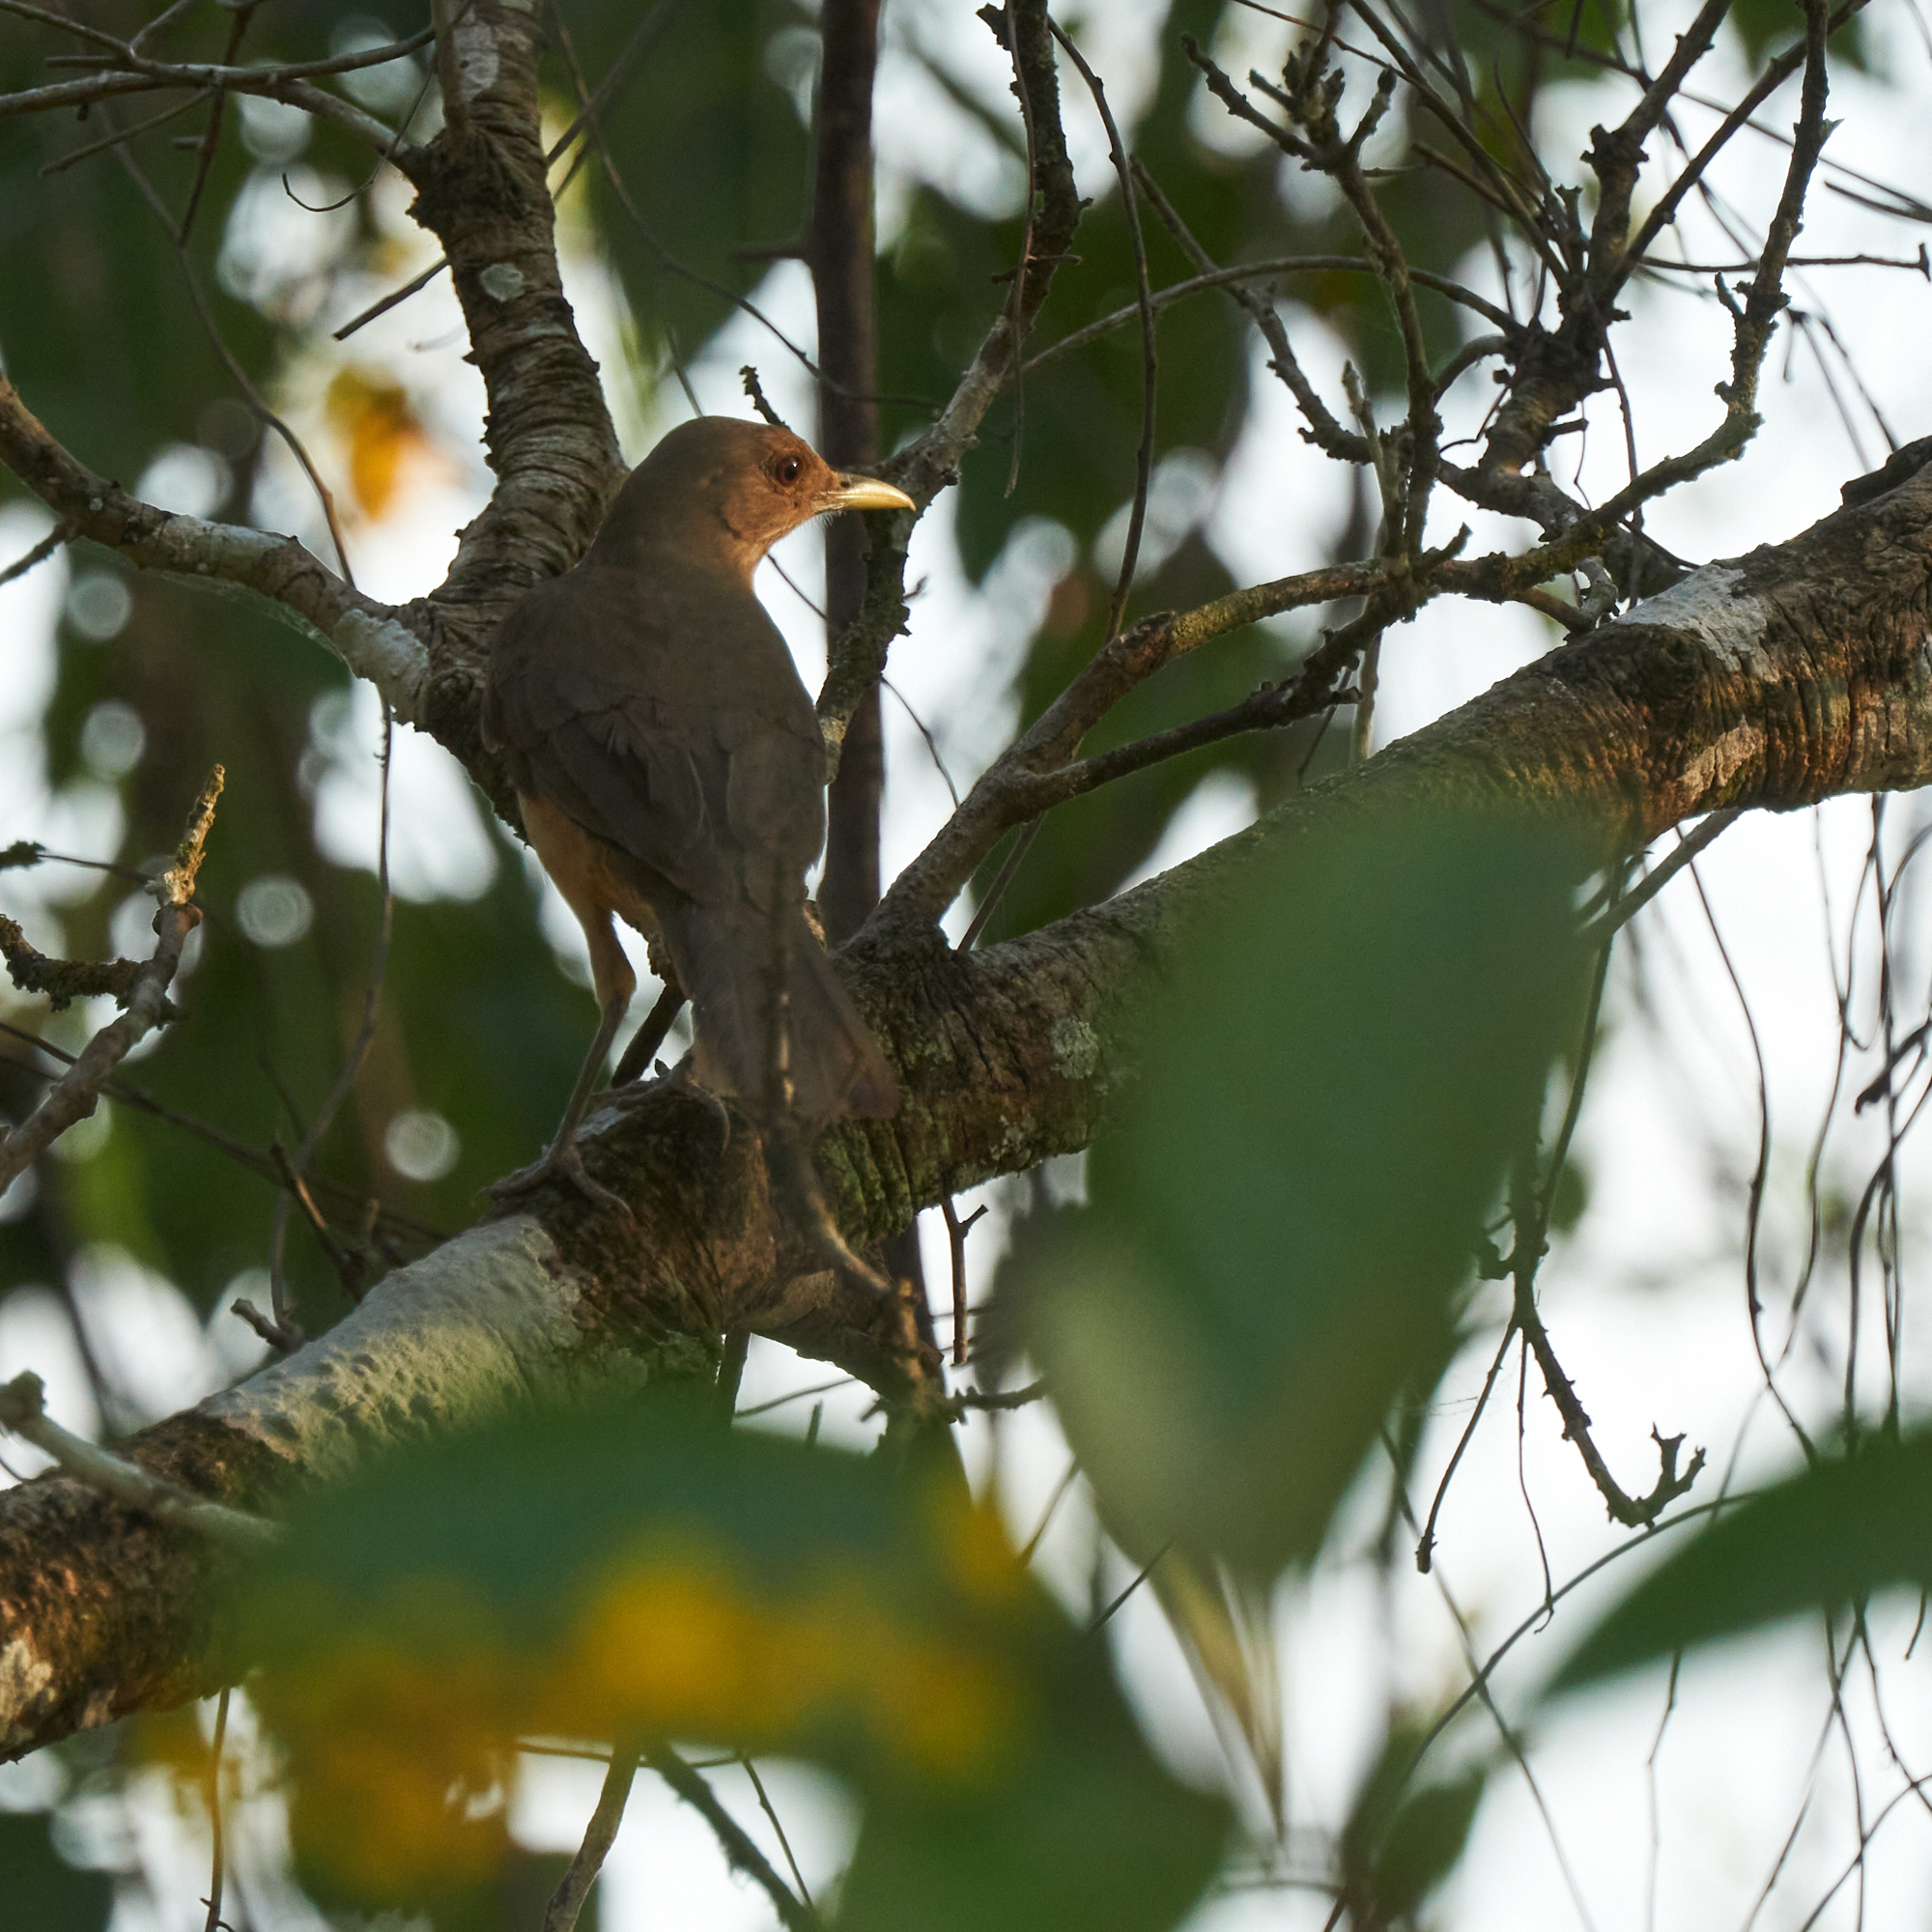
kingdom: Animalia
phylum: Chordata
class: Aves
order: Passeriformes
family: Turdidae
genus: Turdus
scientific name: Turdus grayi
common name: Clay-colored thrush
